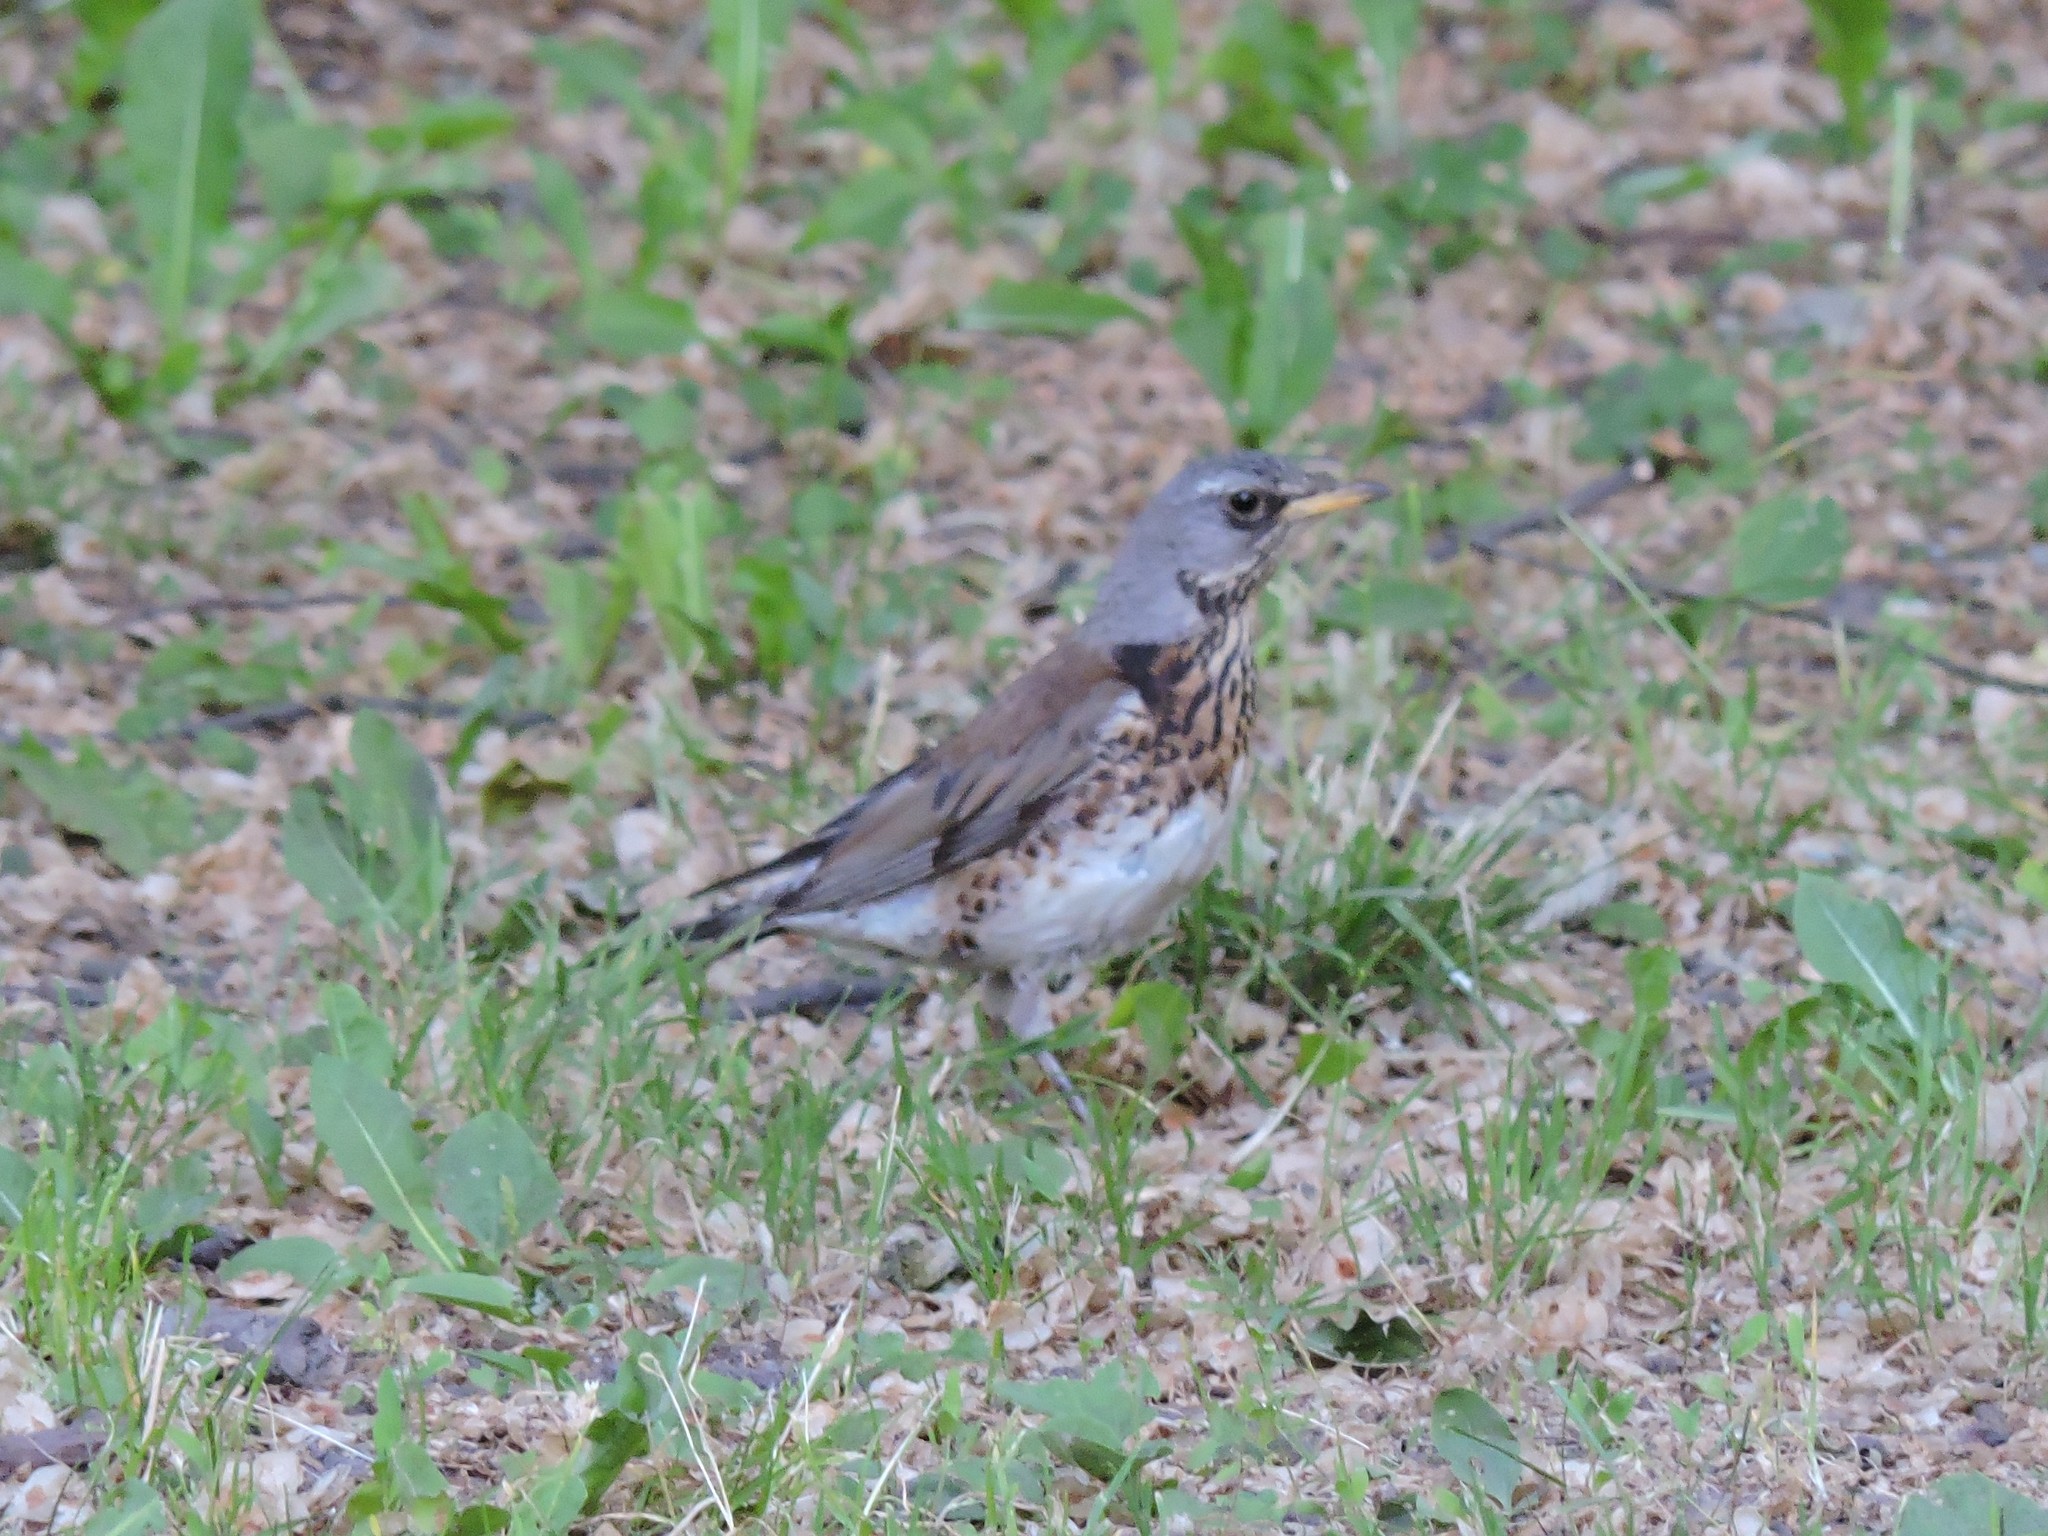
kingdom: Animalia
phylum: Chordata
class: Aves
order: Passeriformes
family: Turdidae
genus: Turdus
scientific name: Turdus pilaris
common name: Fieldfare
